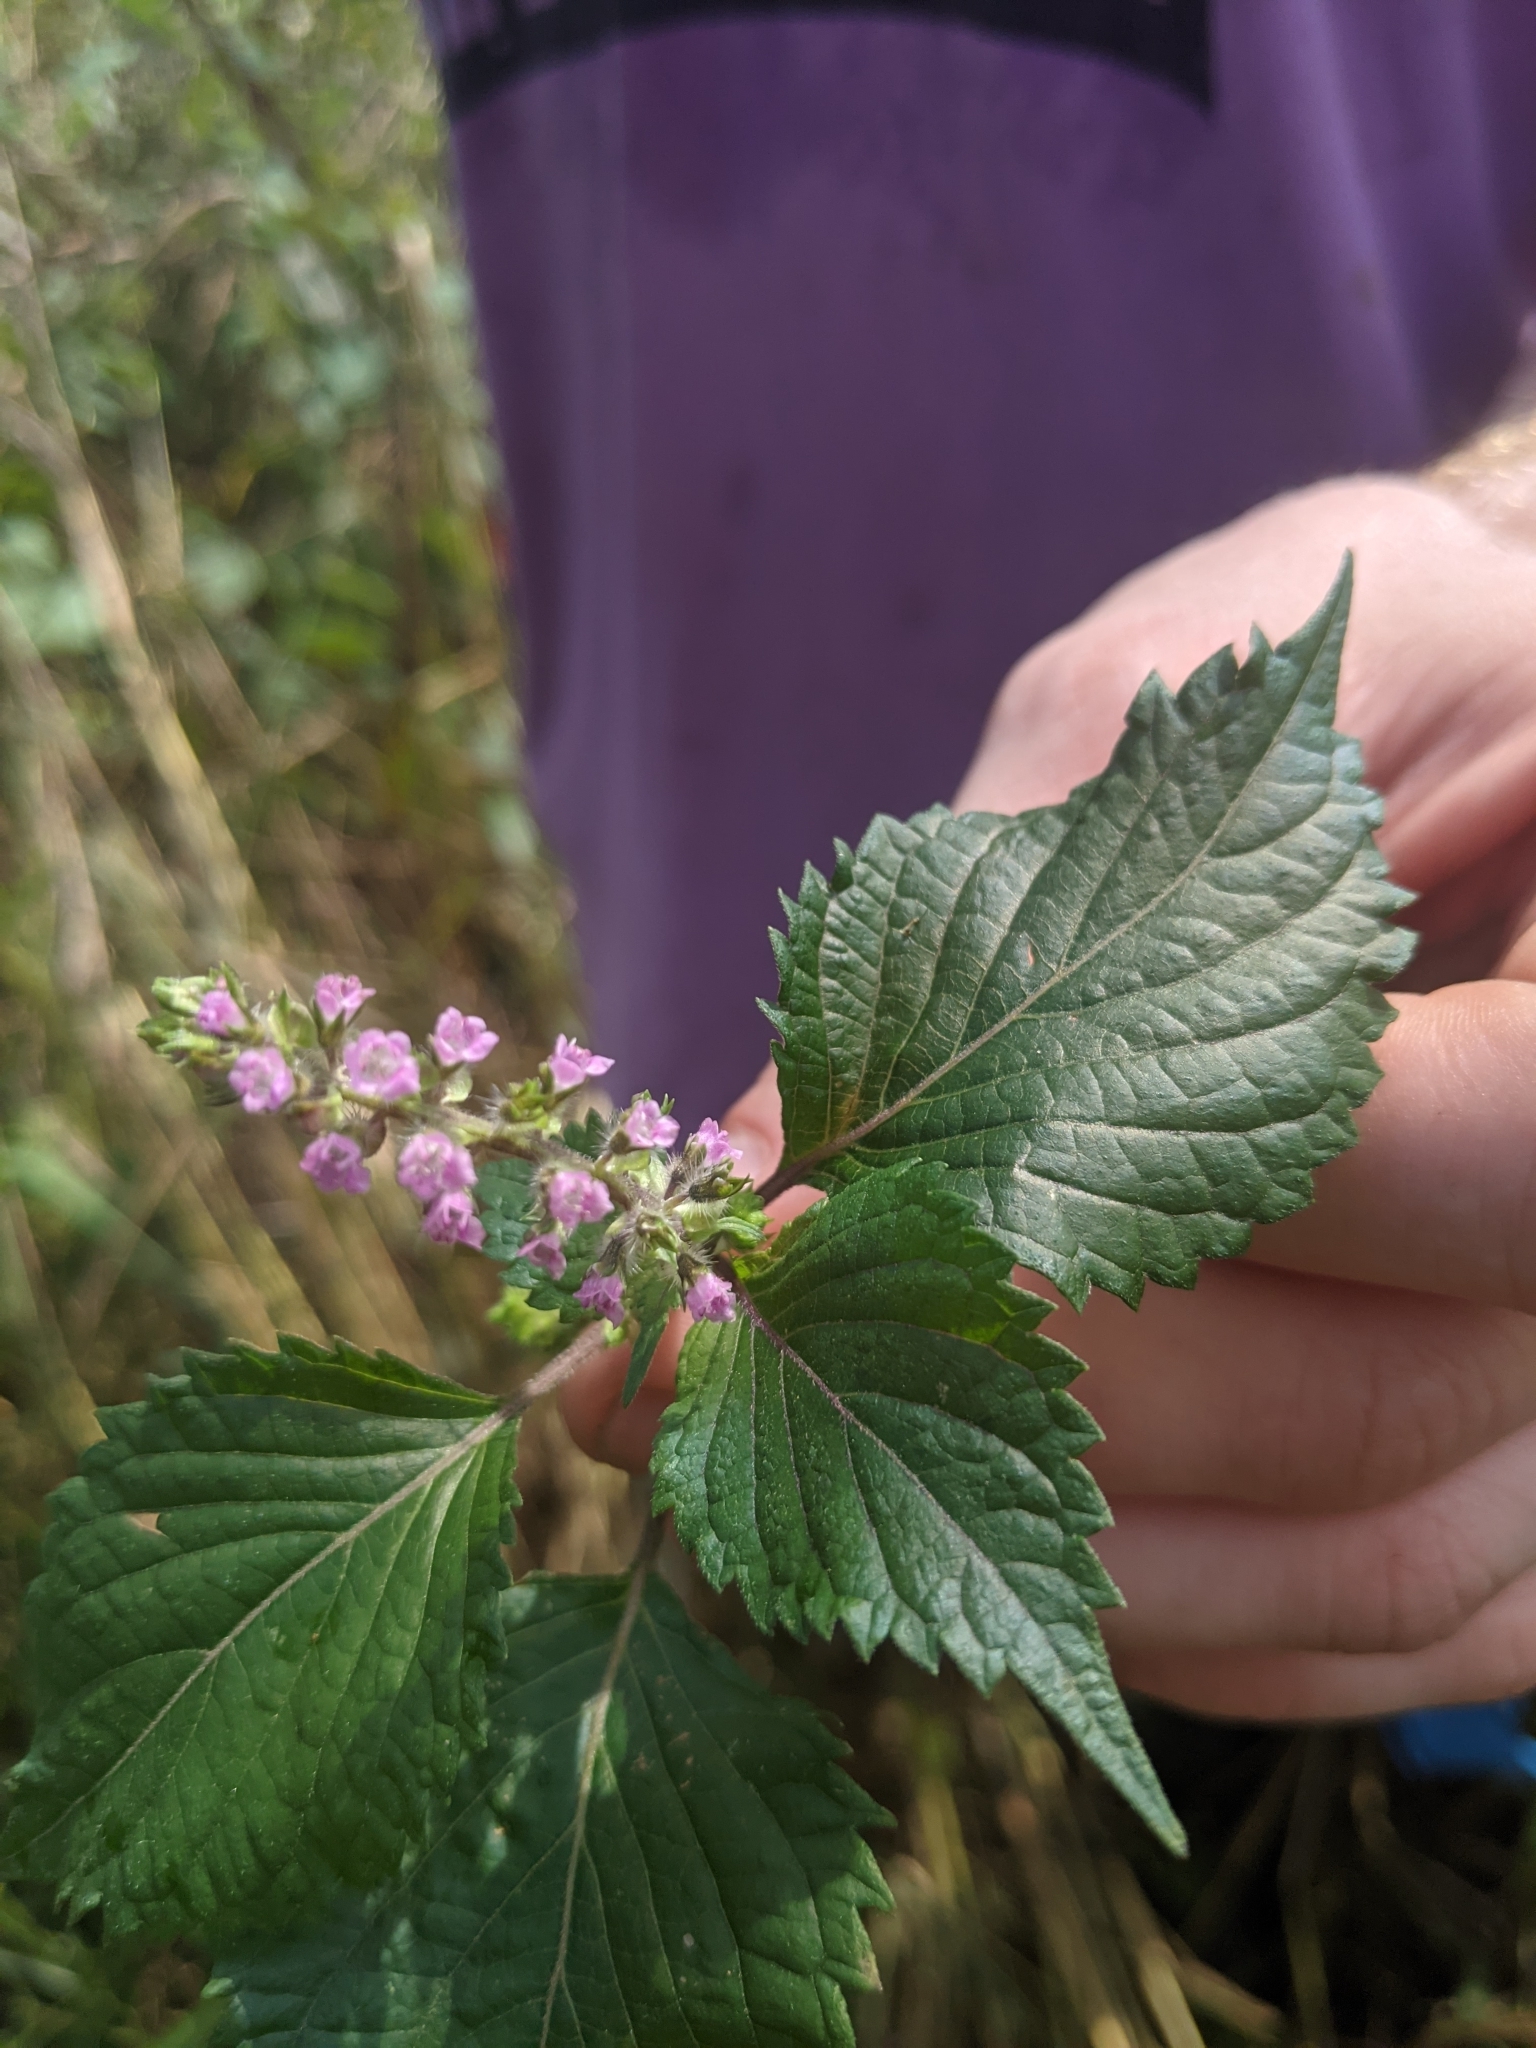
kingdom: Plantae
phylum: Tracheophyta
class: Magnoliopsida
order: Lamiales
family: Lamiaceae
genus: Perilla
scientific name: Perilla frutescens
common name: Perilla
